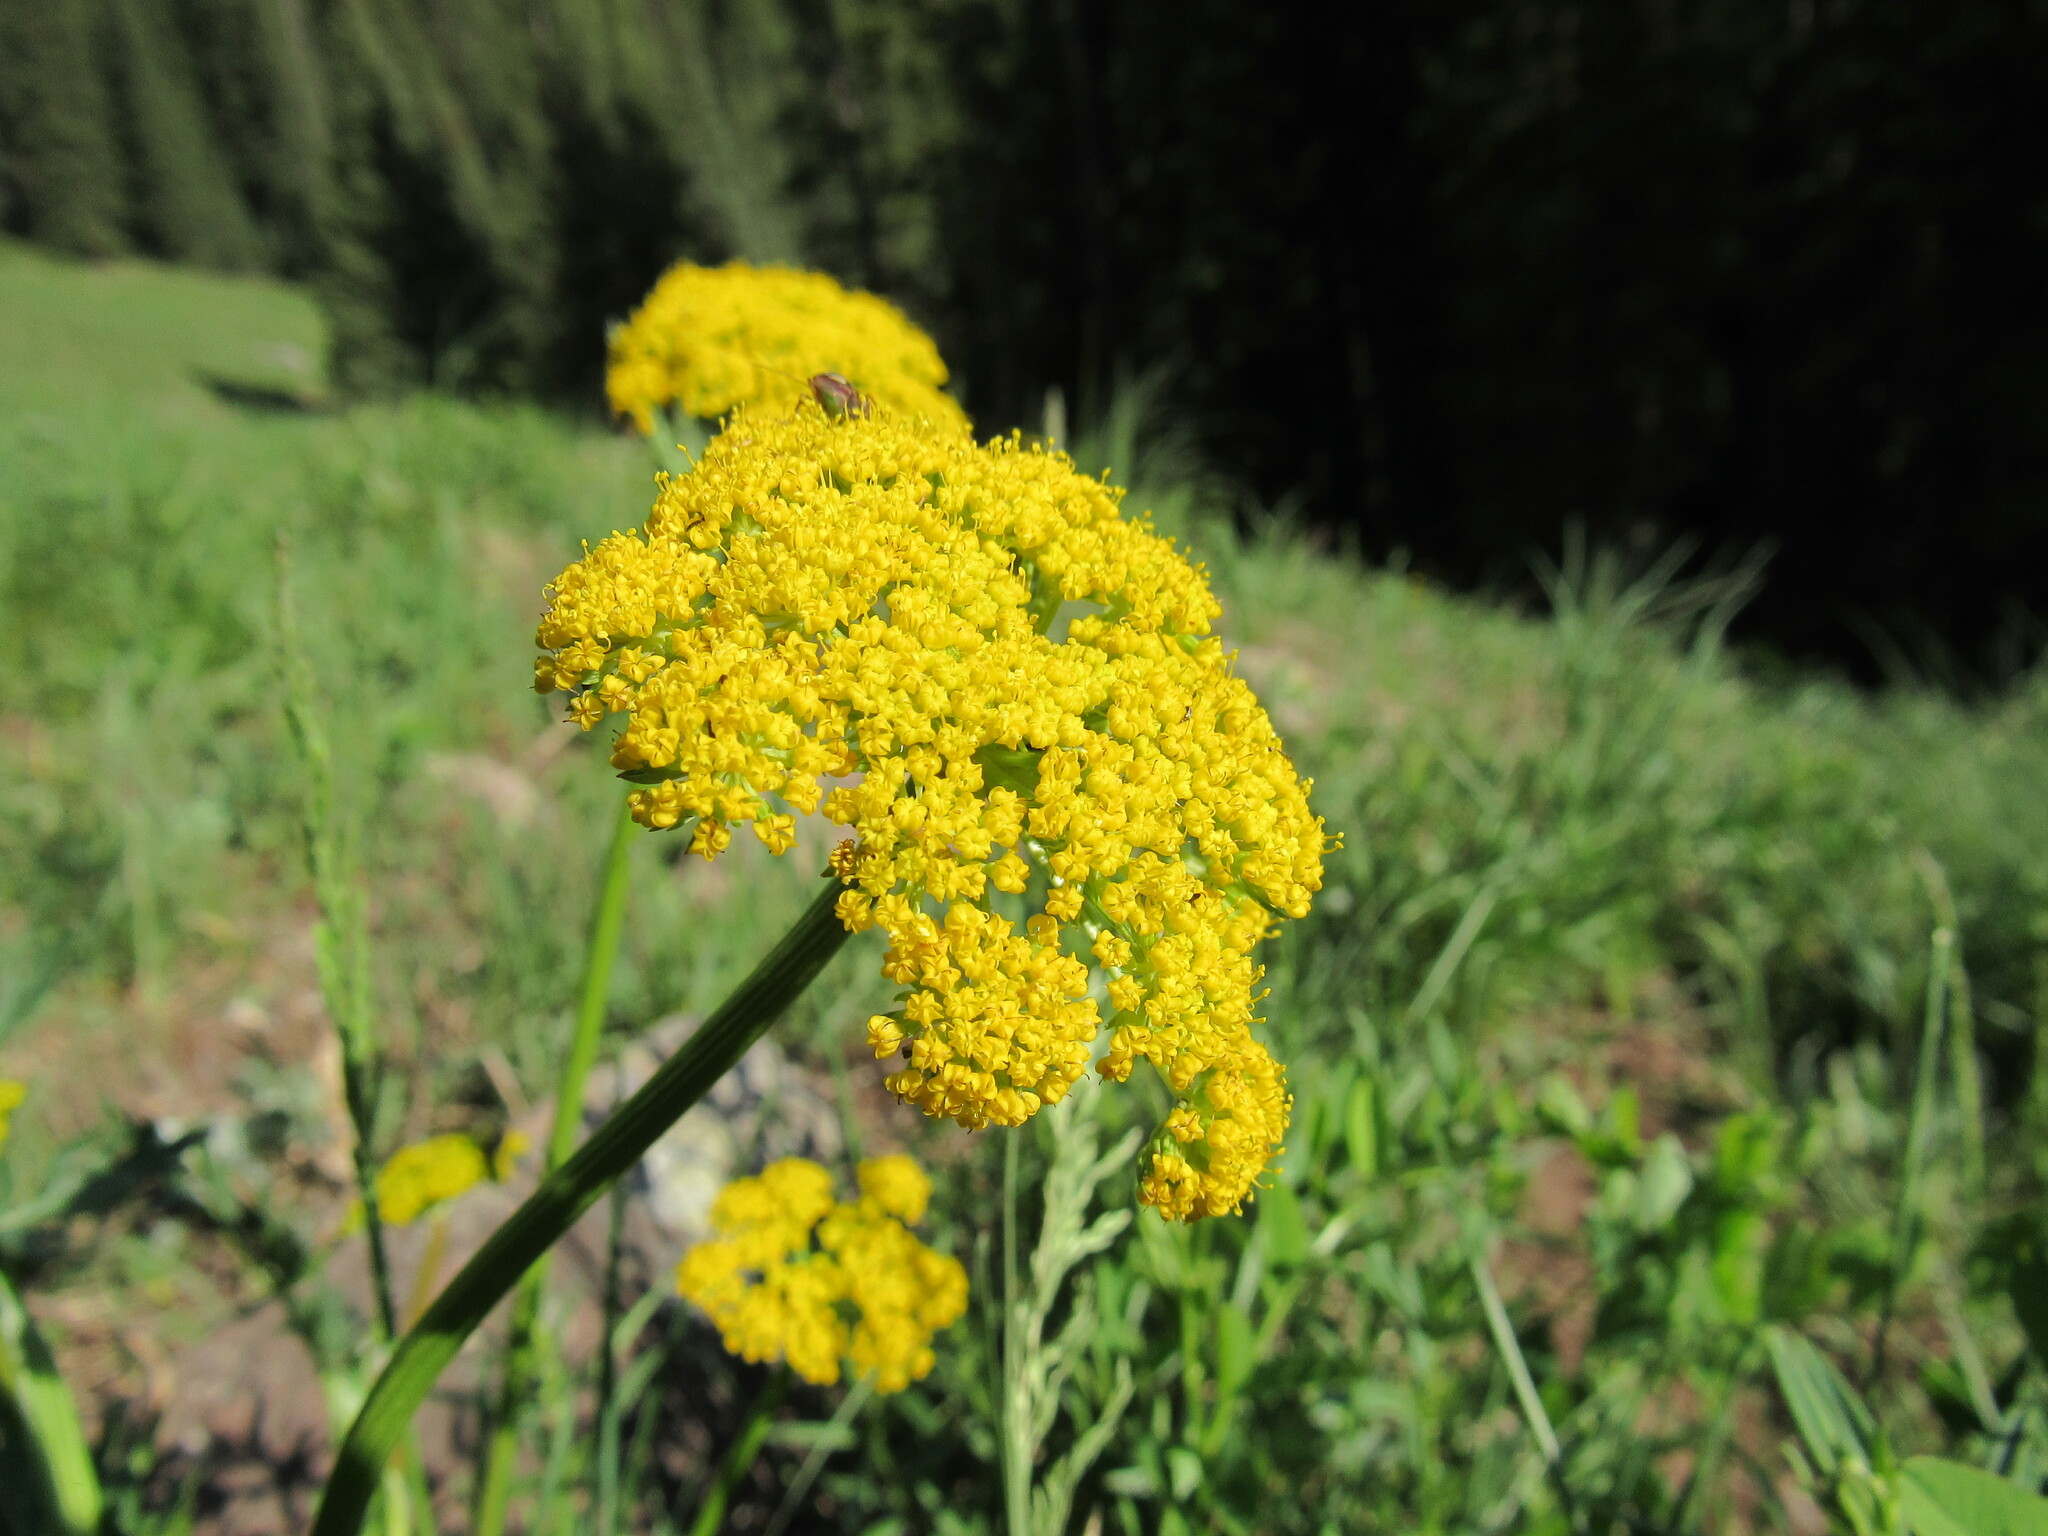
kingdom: Plantae
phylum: Tracheophyta
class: Magnoliopsida
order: Apiales
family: Apiaceae
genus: Cymopterus
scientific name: Cymopterus lemmonii
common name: Lemmon's spring-parsley
